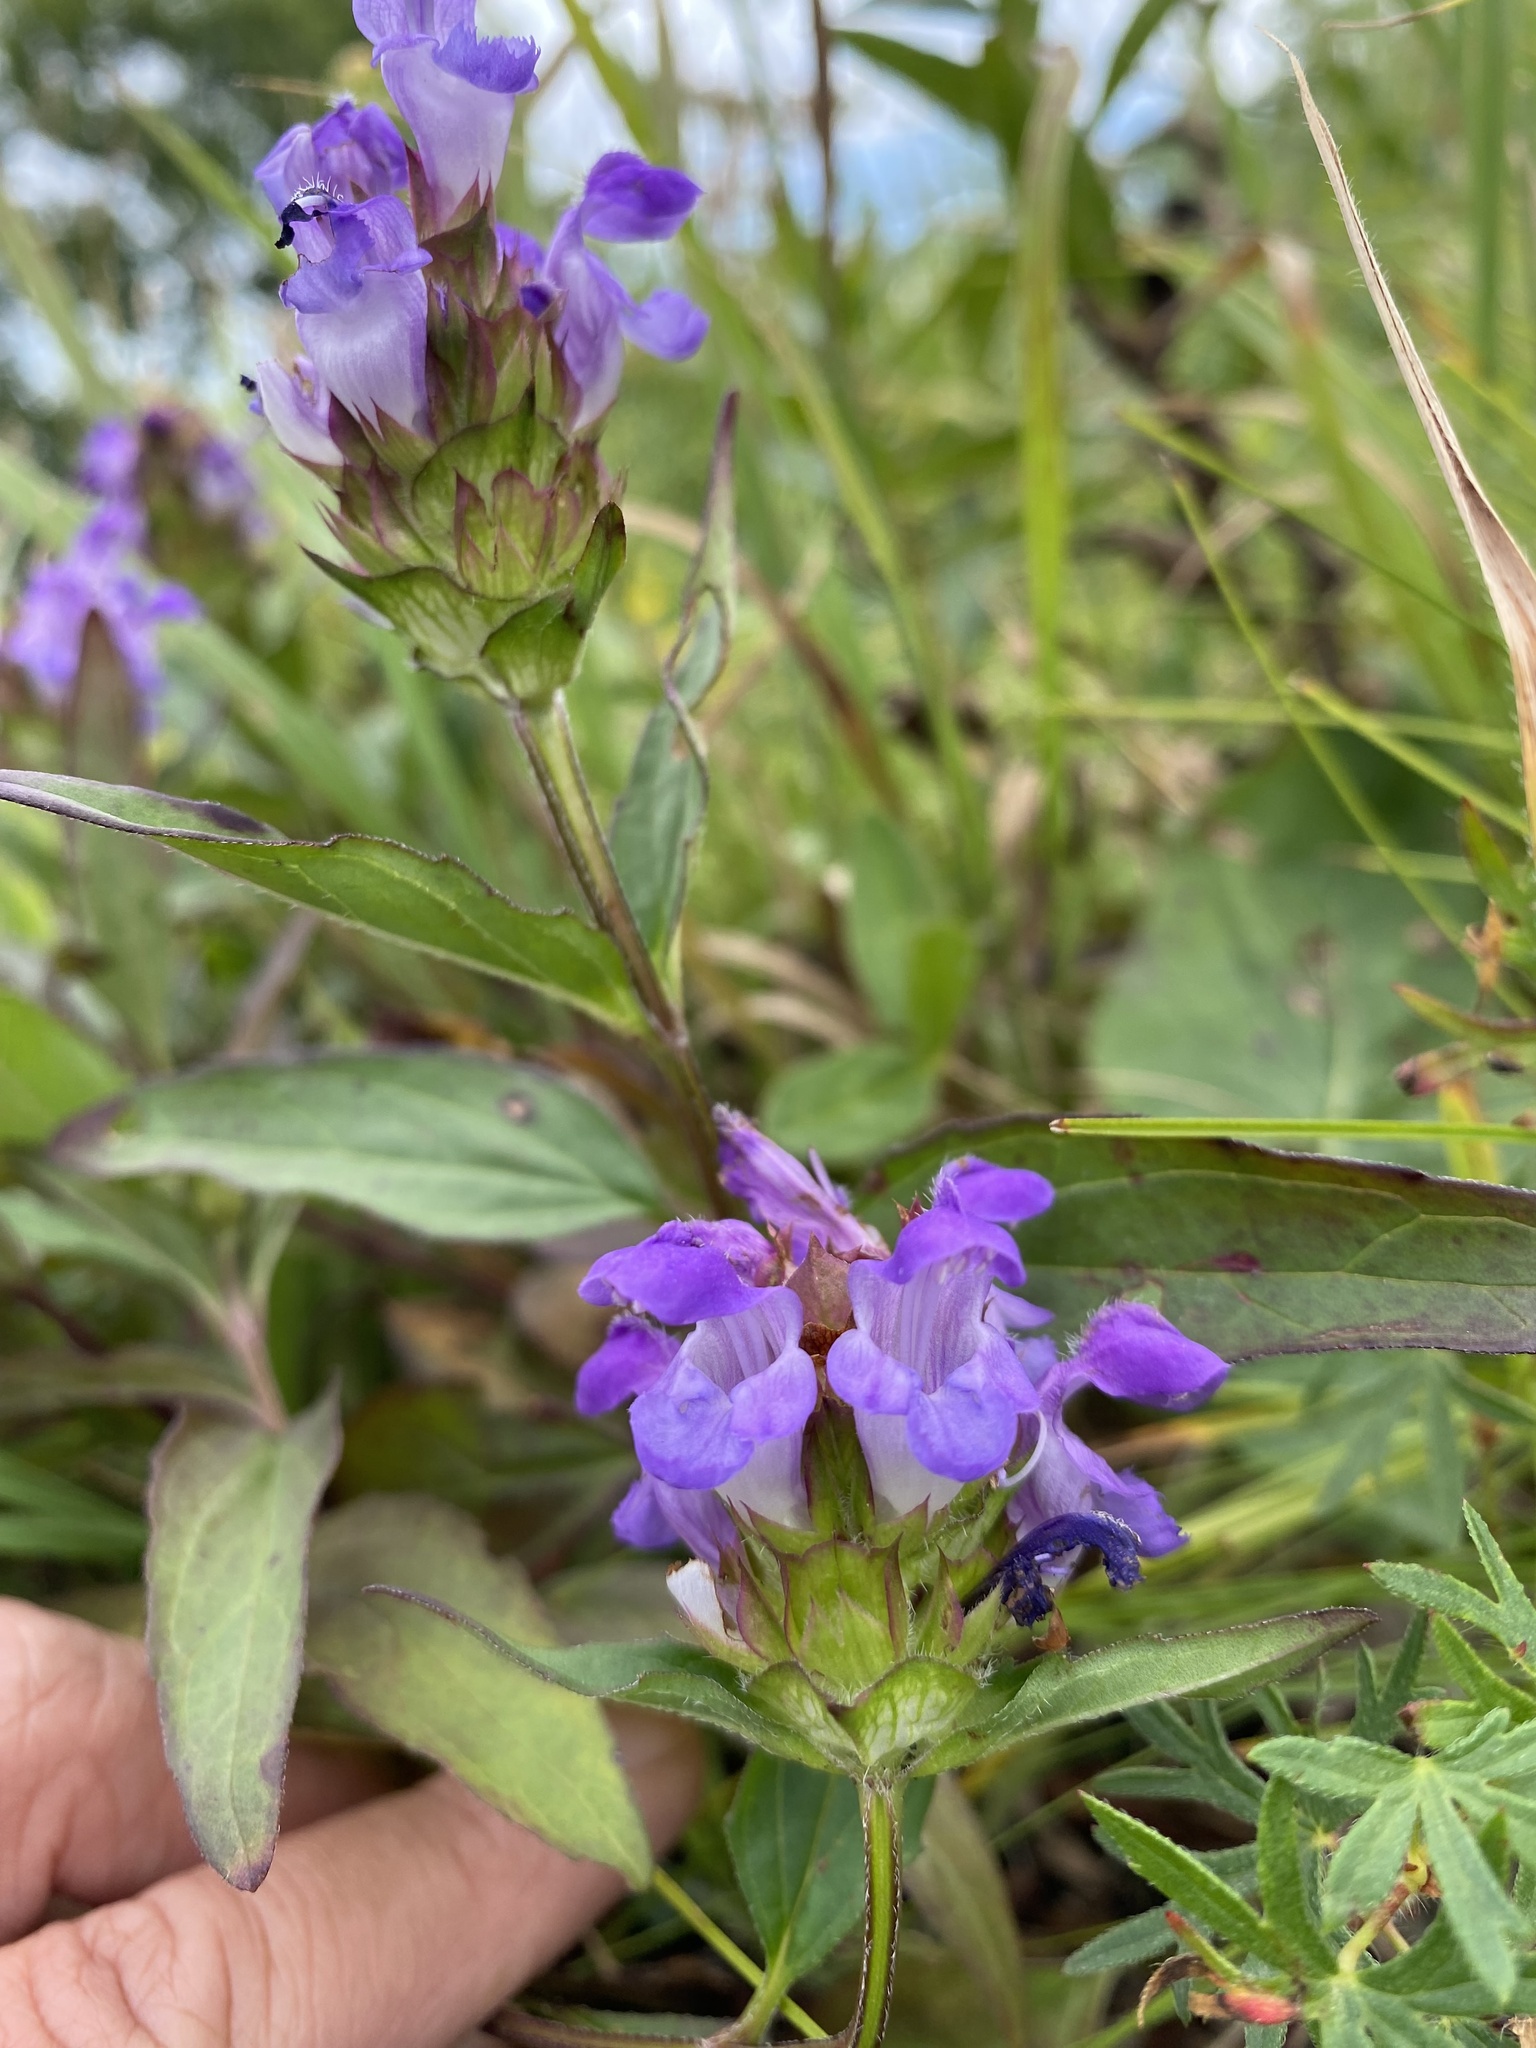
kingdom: Plantae
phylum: Tracheophyta
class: Magnoliopsida
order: Lamiales
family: Lamiaceae
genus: Prunella
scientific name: Prunella grandiflora
